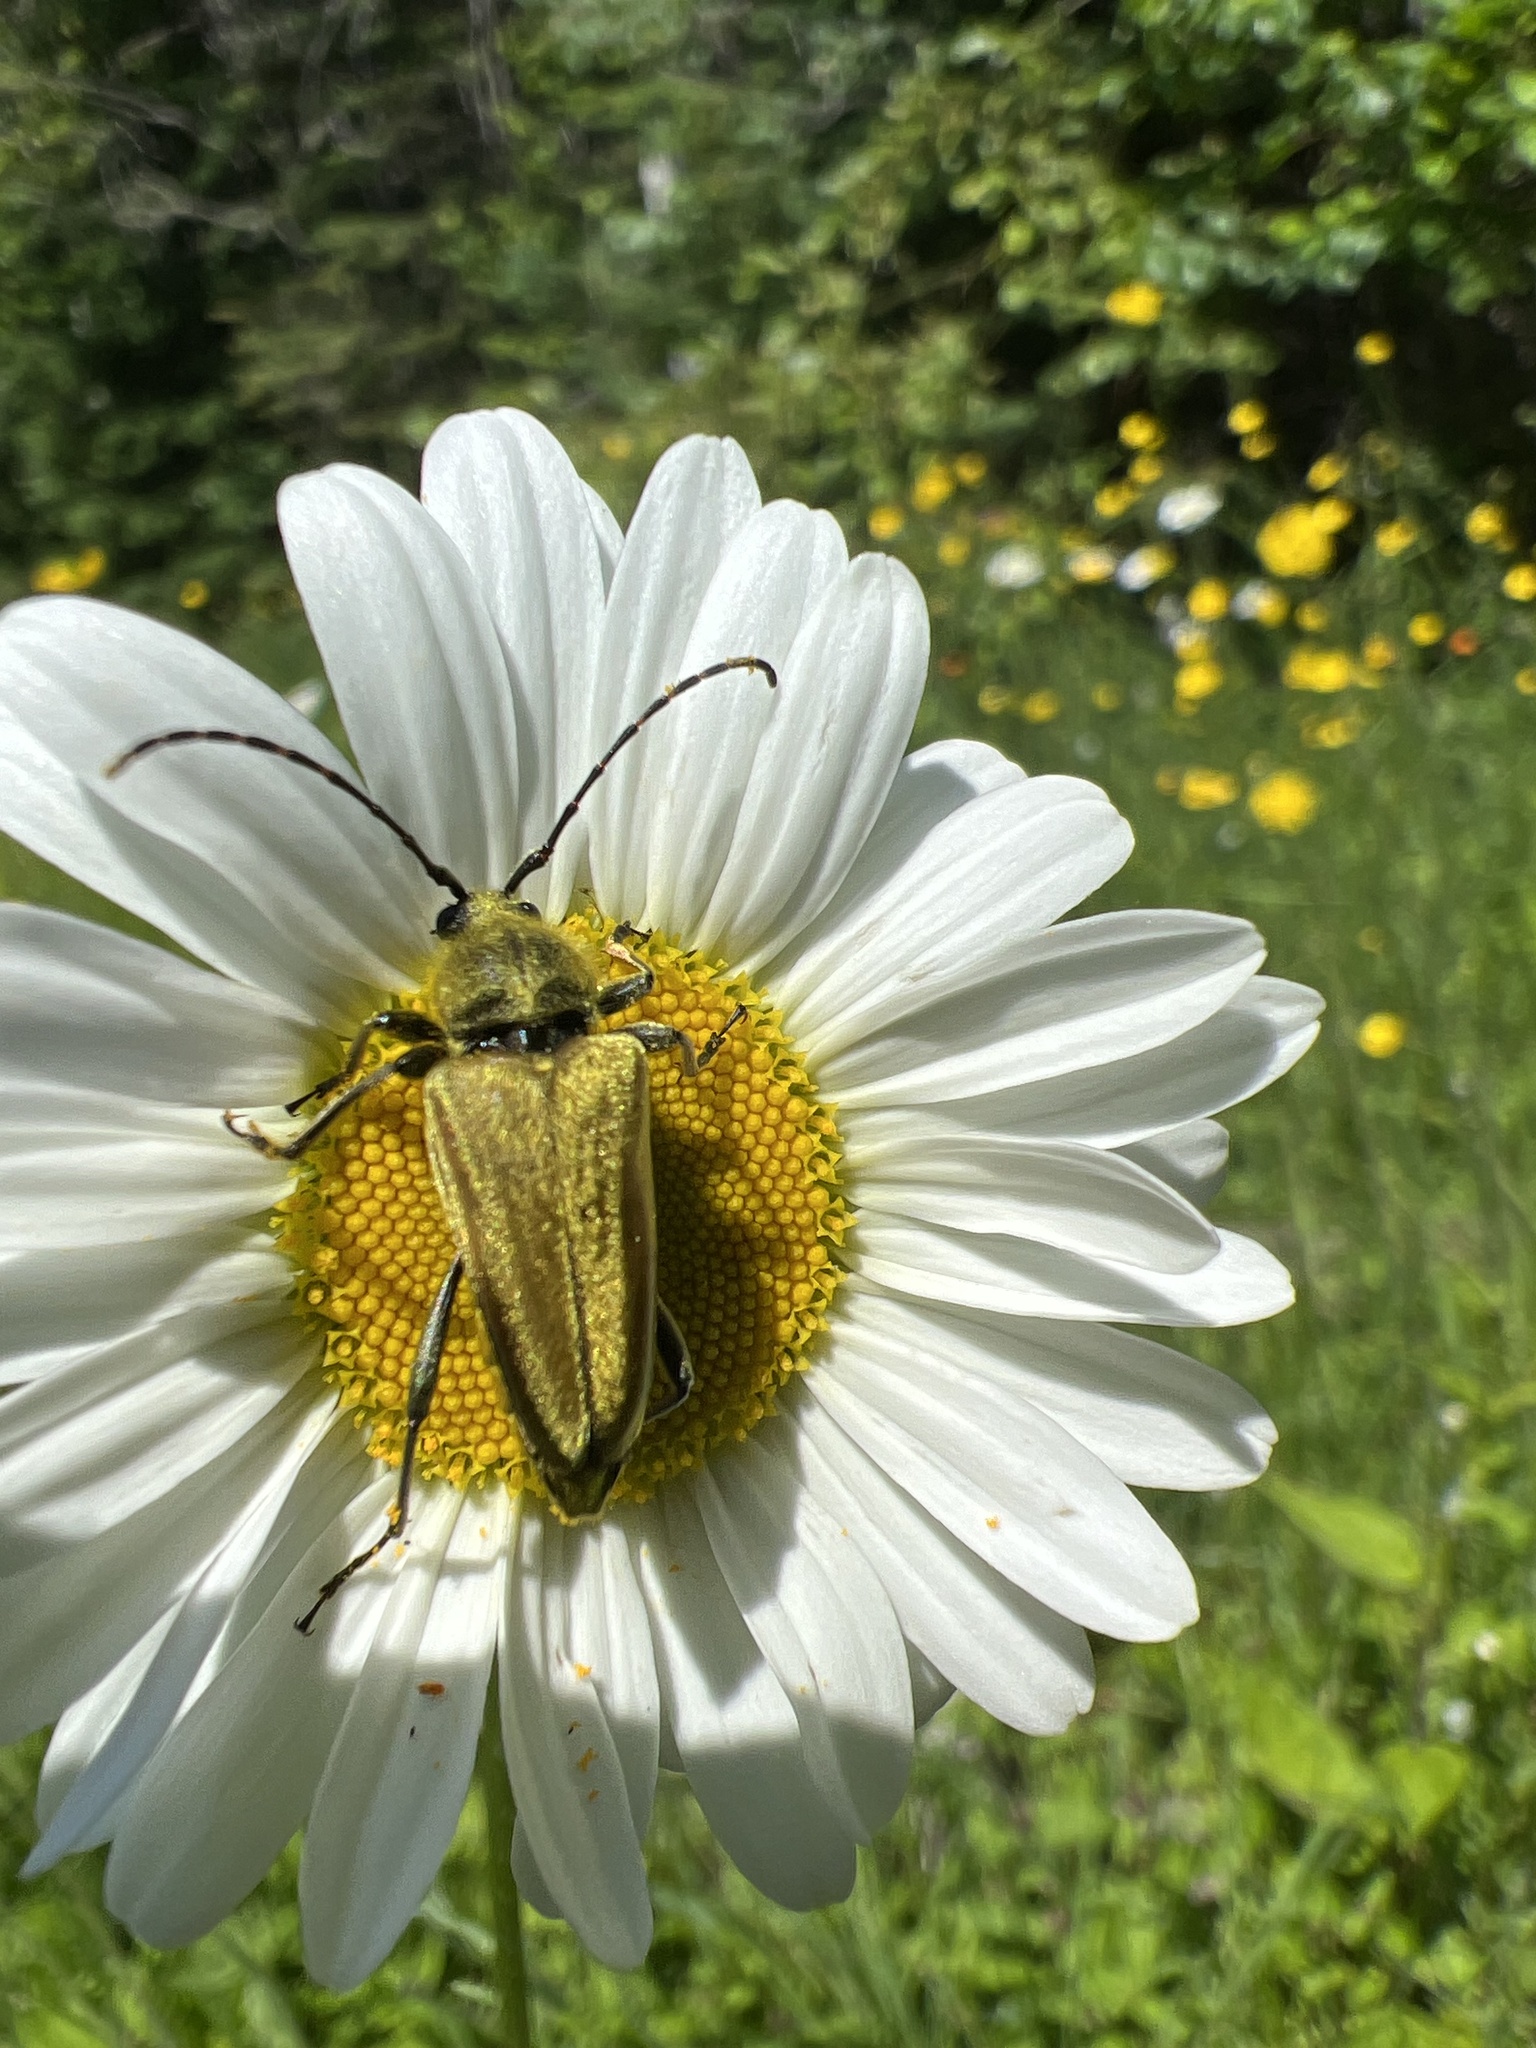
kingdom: Animalia
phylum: Arthropoda
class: Insecta
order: Coleoptera
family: Cerambycidae
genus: Cosmosalia
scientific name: Cosmosalia chrysocoma
